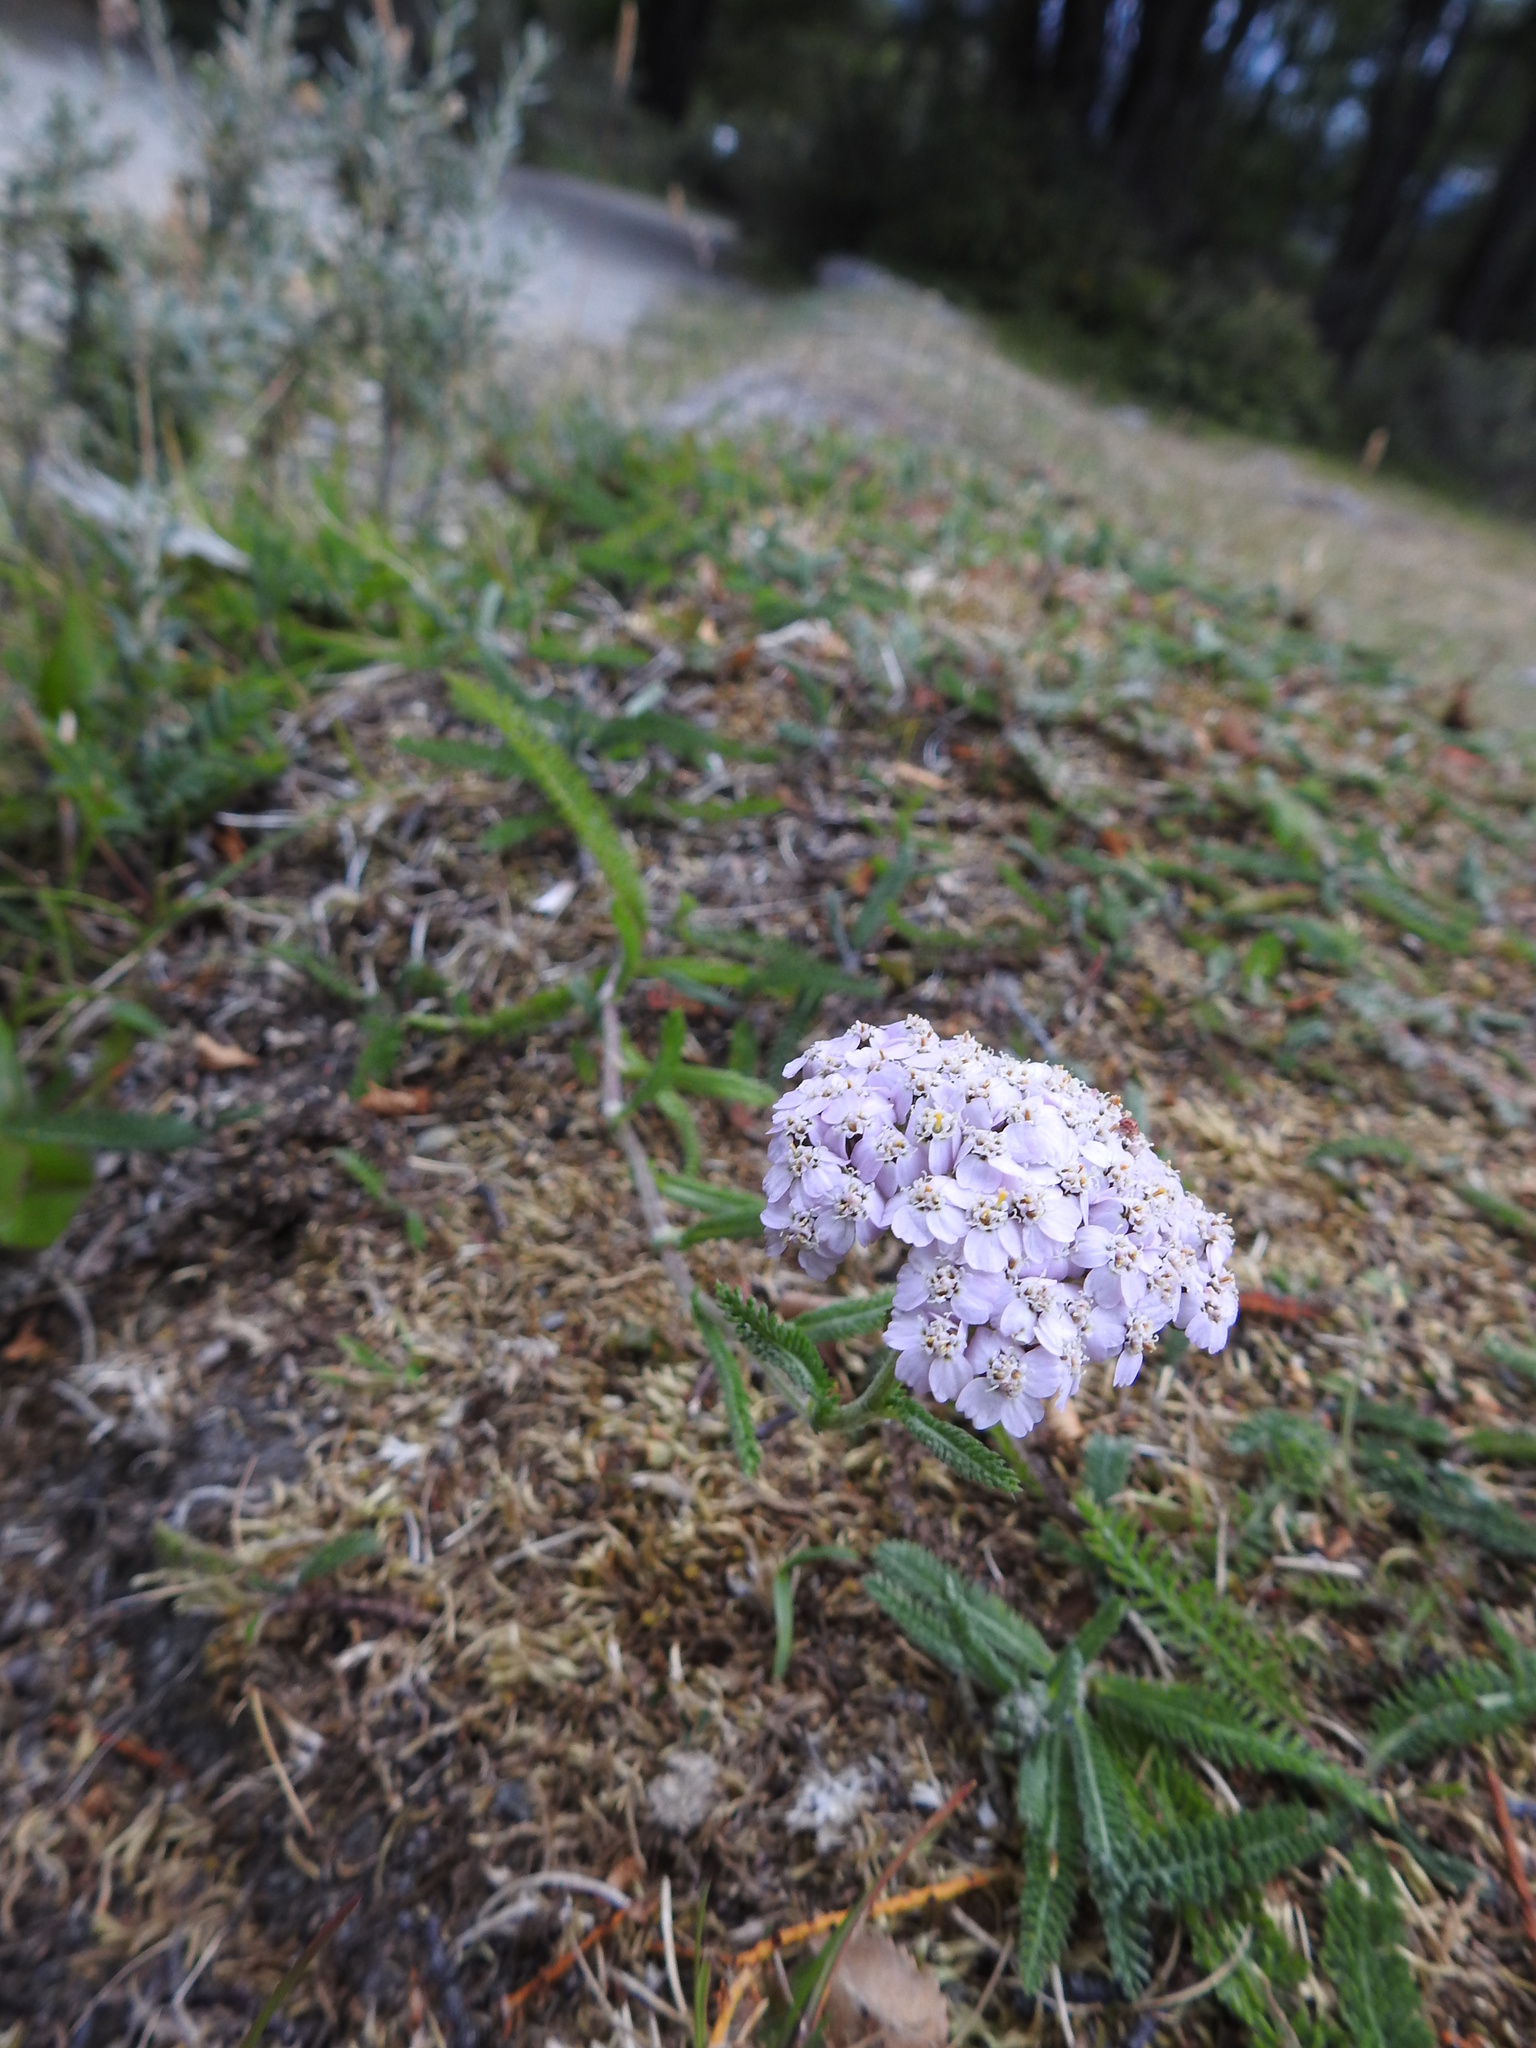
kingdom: Plantae
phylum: Tracheophyta
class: Magnoliopsida
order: Asterales
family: Asteraceae
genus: Achillea
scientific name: Achillea millefolium
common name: Yarrow
